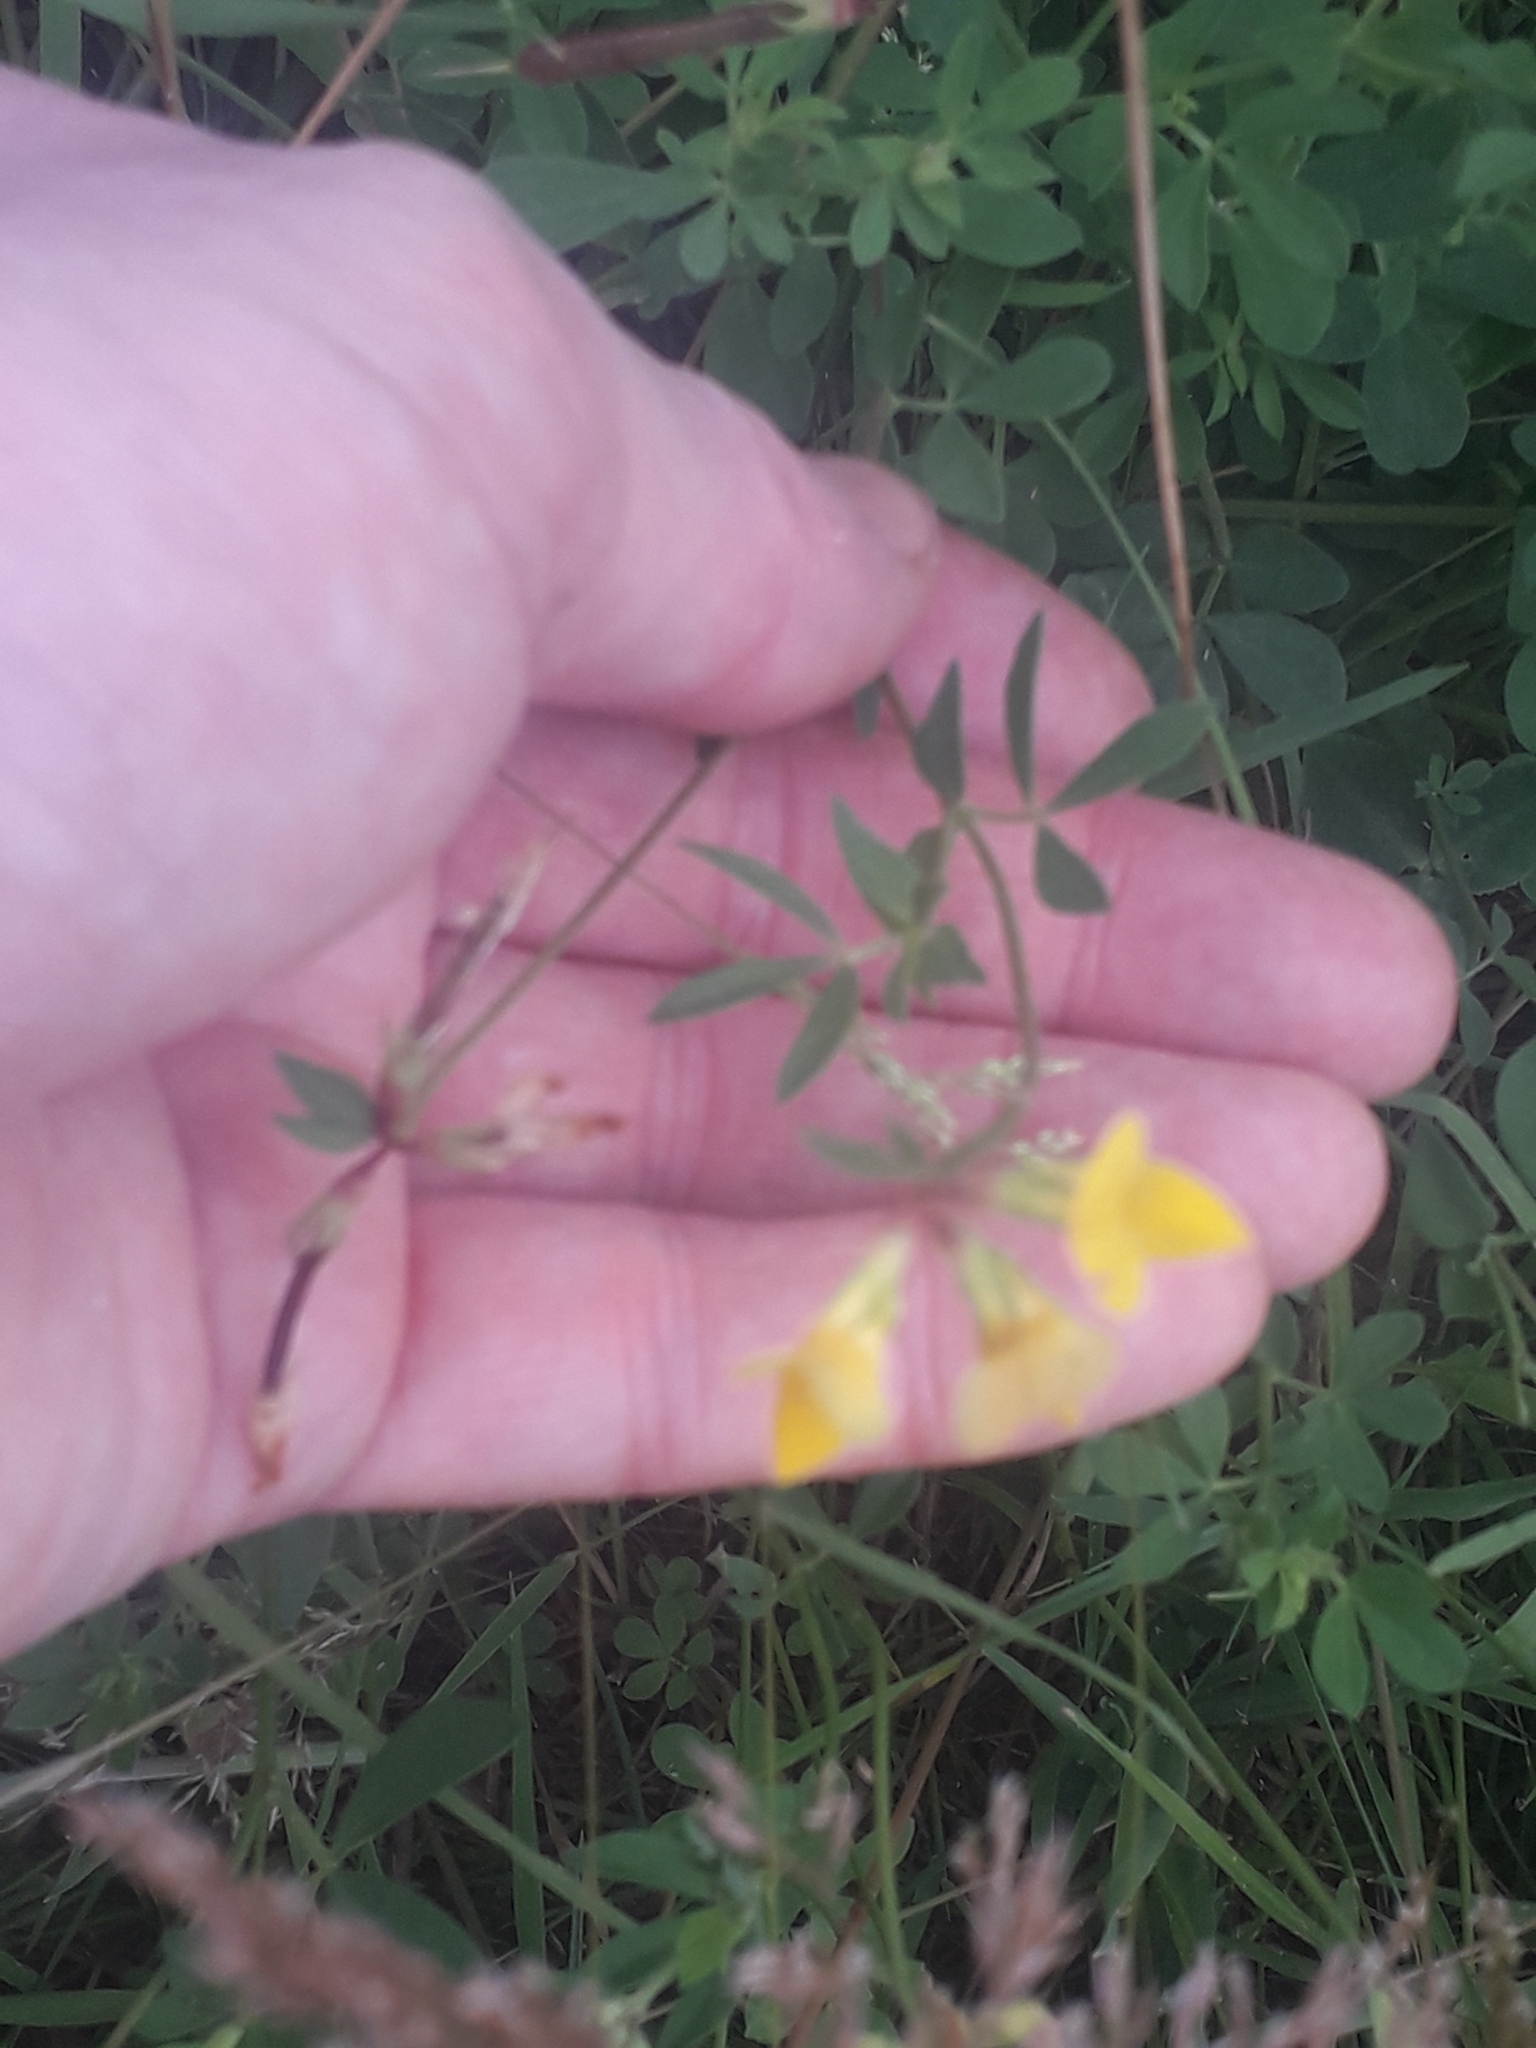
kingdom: Plantae
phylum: Tracheophyta
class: Magnoliopsida
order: Fabales
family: Fabaceae
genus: Lotus
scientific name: Lotus corniculatus
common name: Common bird's-foot-trefoil
